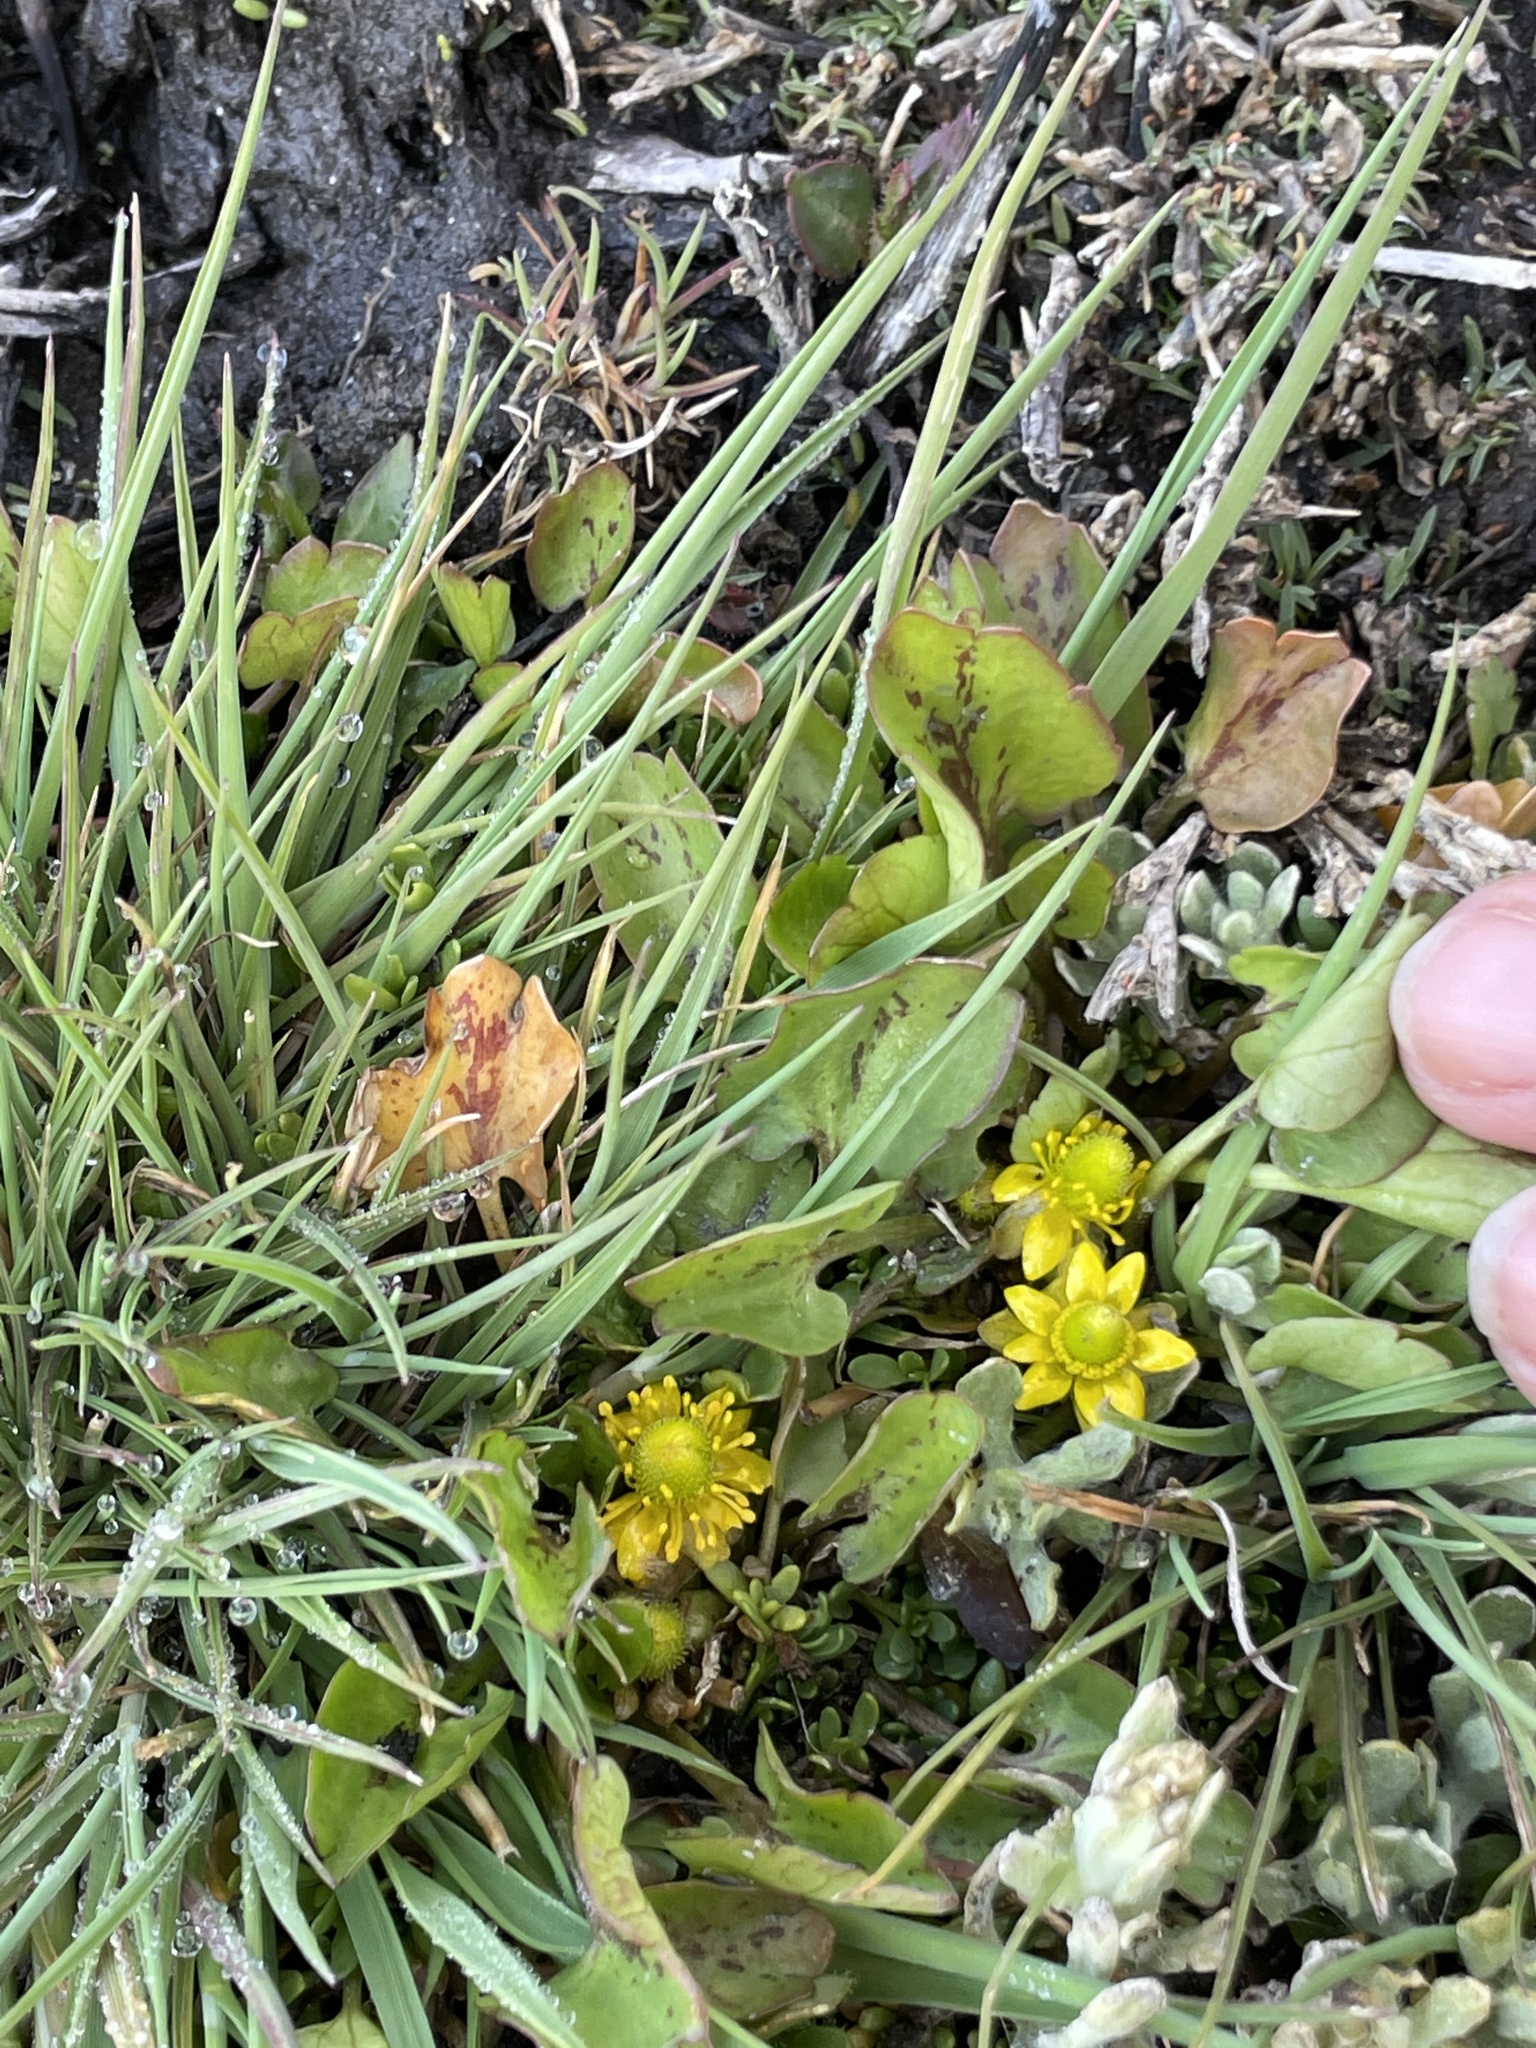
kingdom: Plantae
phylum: Tracheophyta
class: Magnoliopsida
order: Ranunculales
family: Ranunculaceae
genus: Halerpestes
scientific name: Halerpestes cymbalaria
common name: Seaside crowfoot
